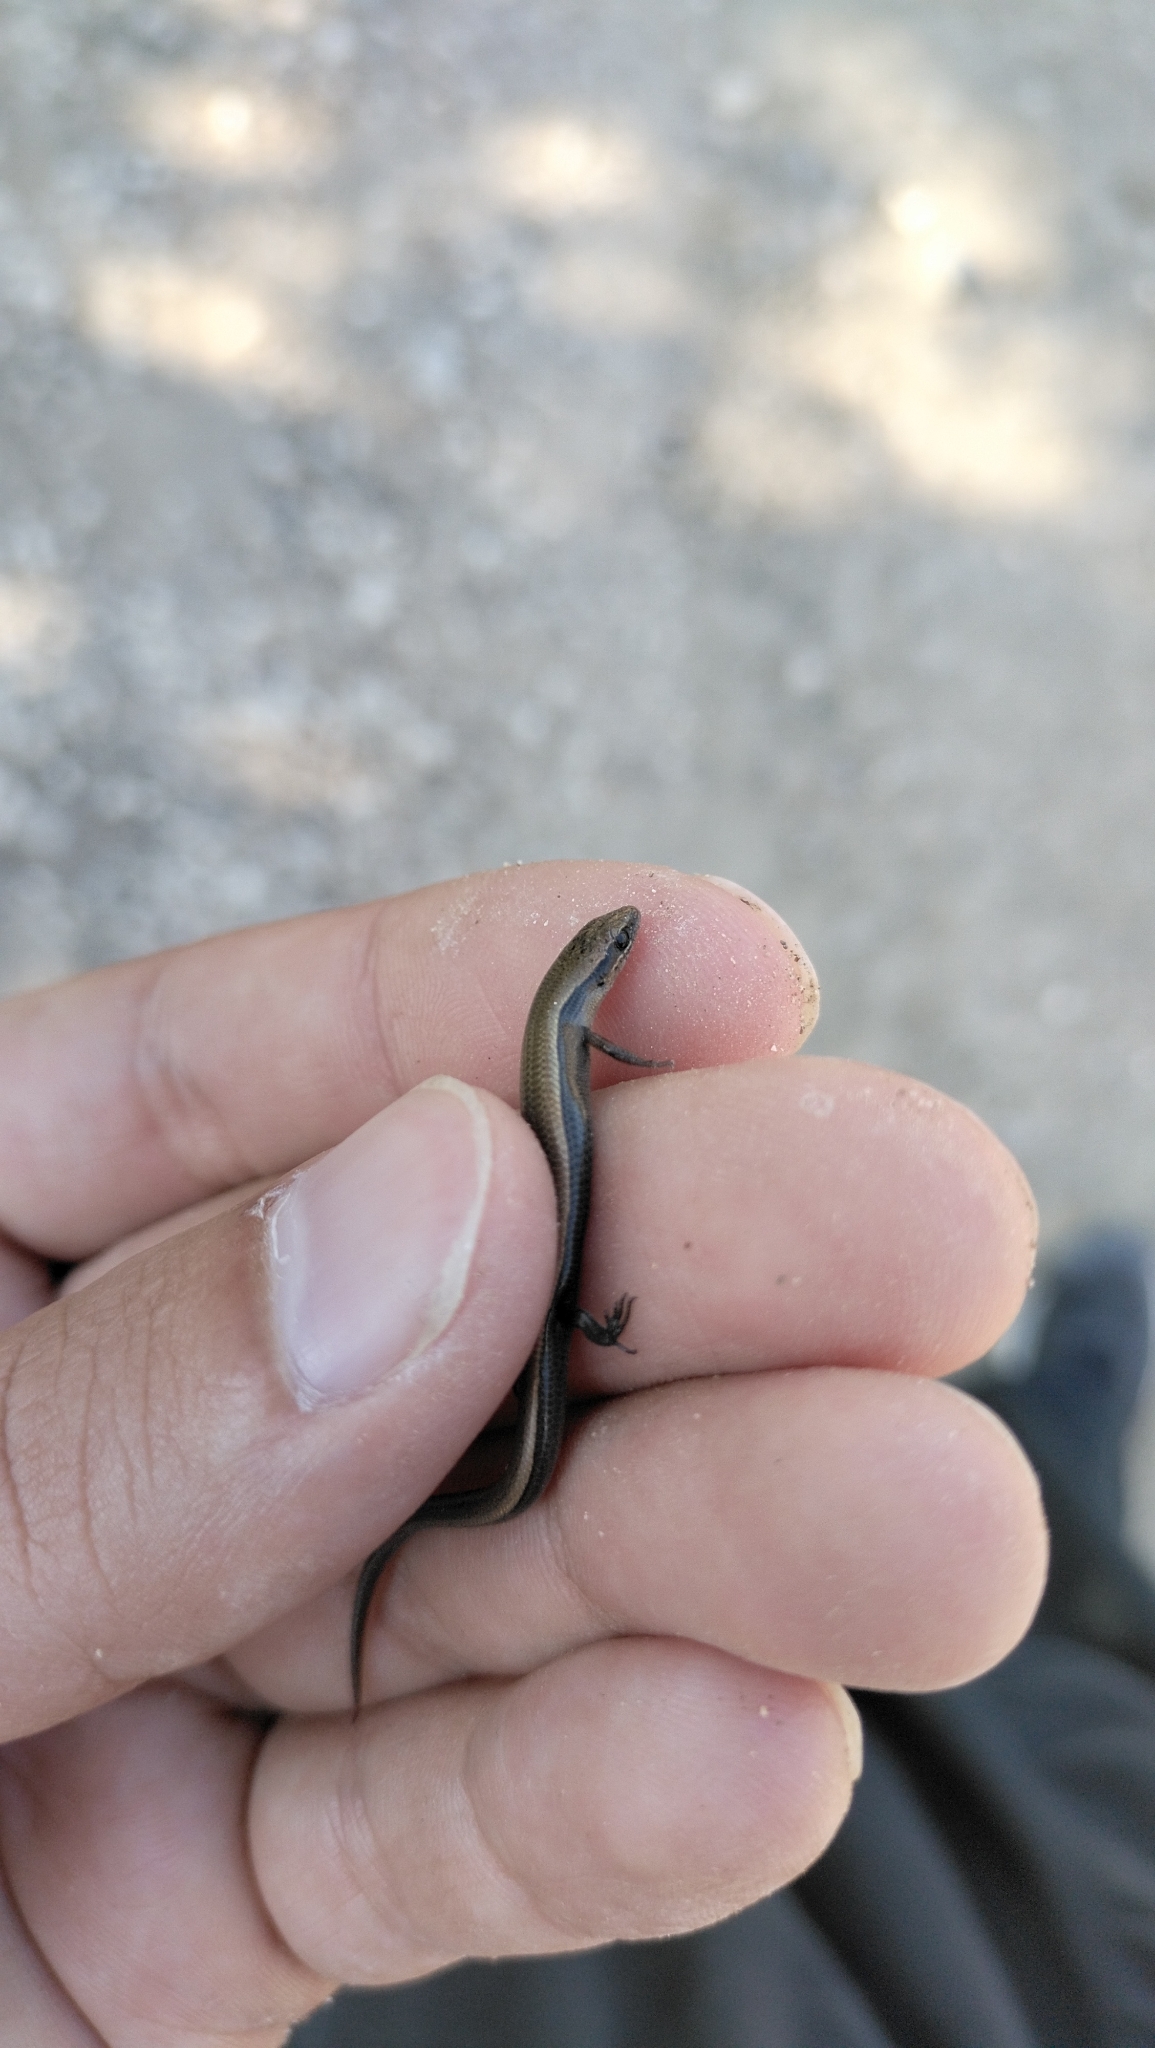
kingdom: Animalia
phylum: Chordata
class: Squamata
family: Scincidae
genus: Ablepharus
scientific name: Ablepharus budaki
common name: Budak’s snake-eyed skink
